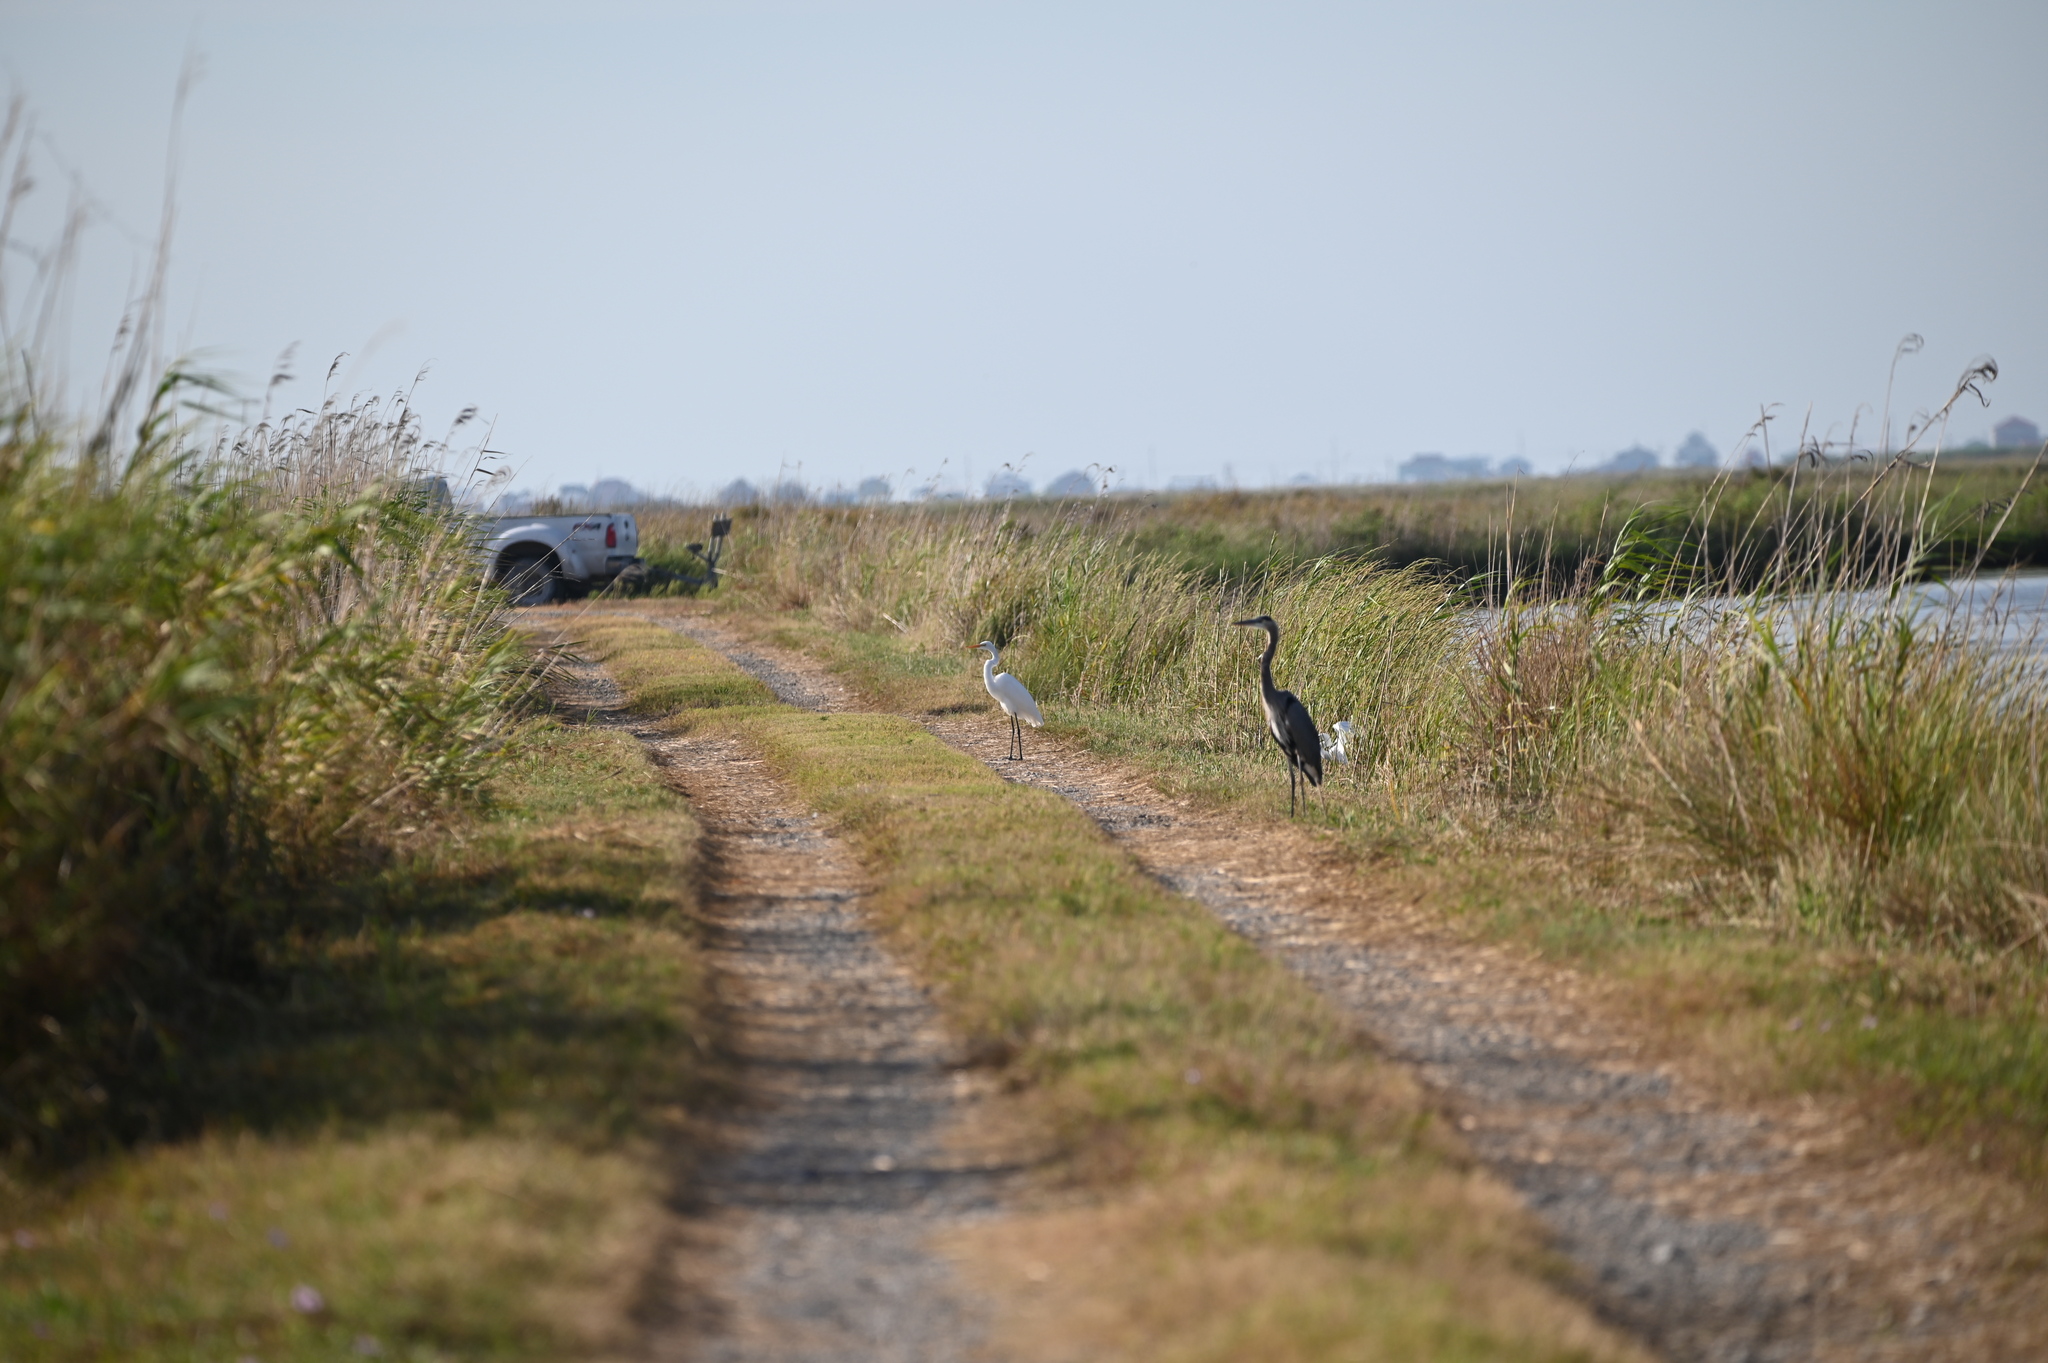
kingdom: Animalia
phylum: Chordata
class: Aves
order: Pelecaniformes
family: Ardeidae
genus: Ardea
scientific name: Ardea alba
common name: Great egret
